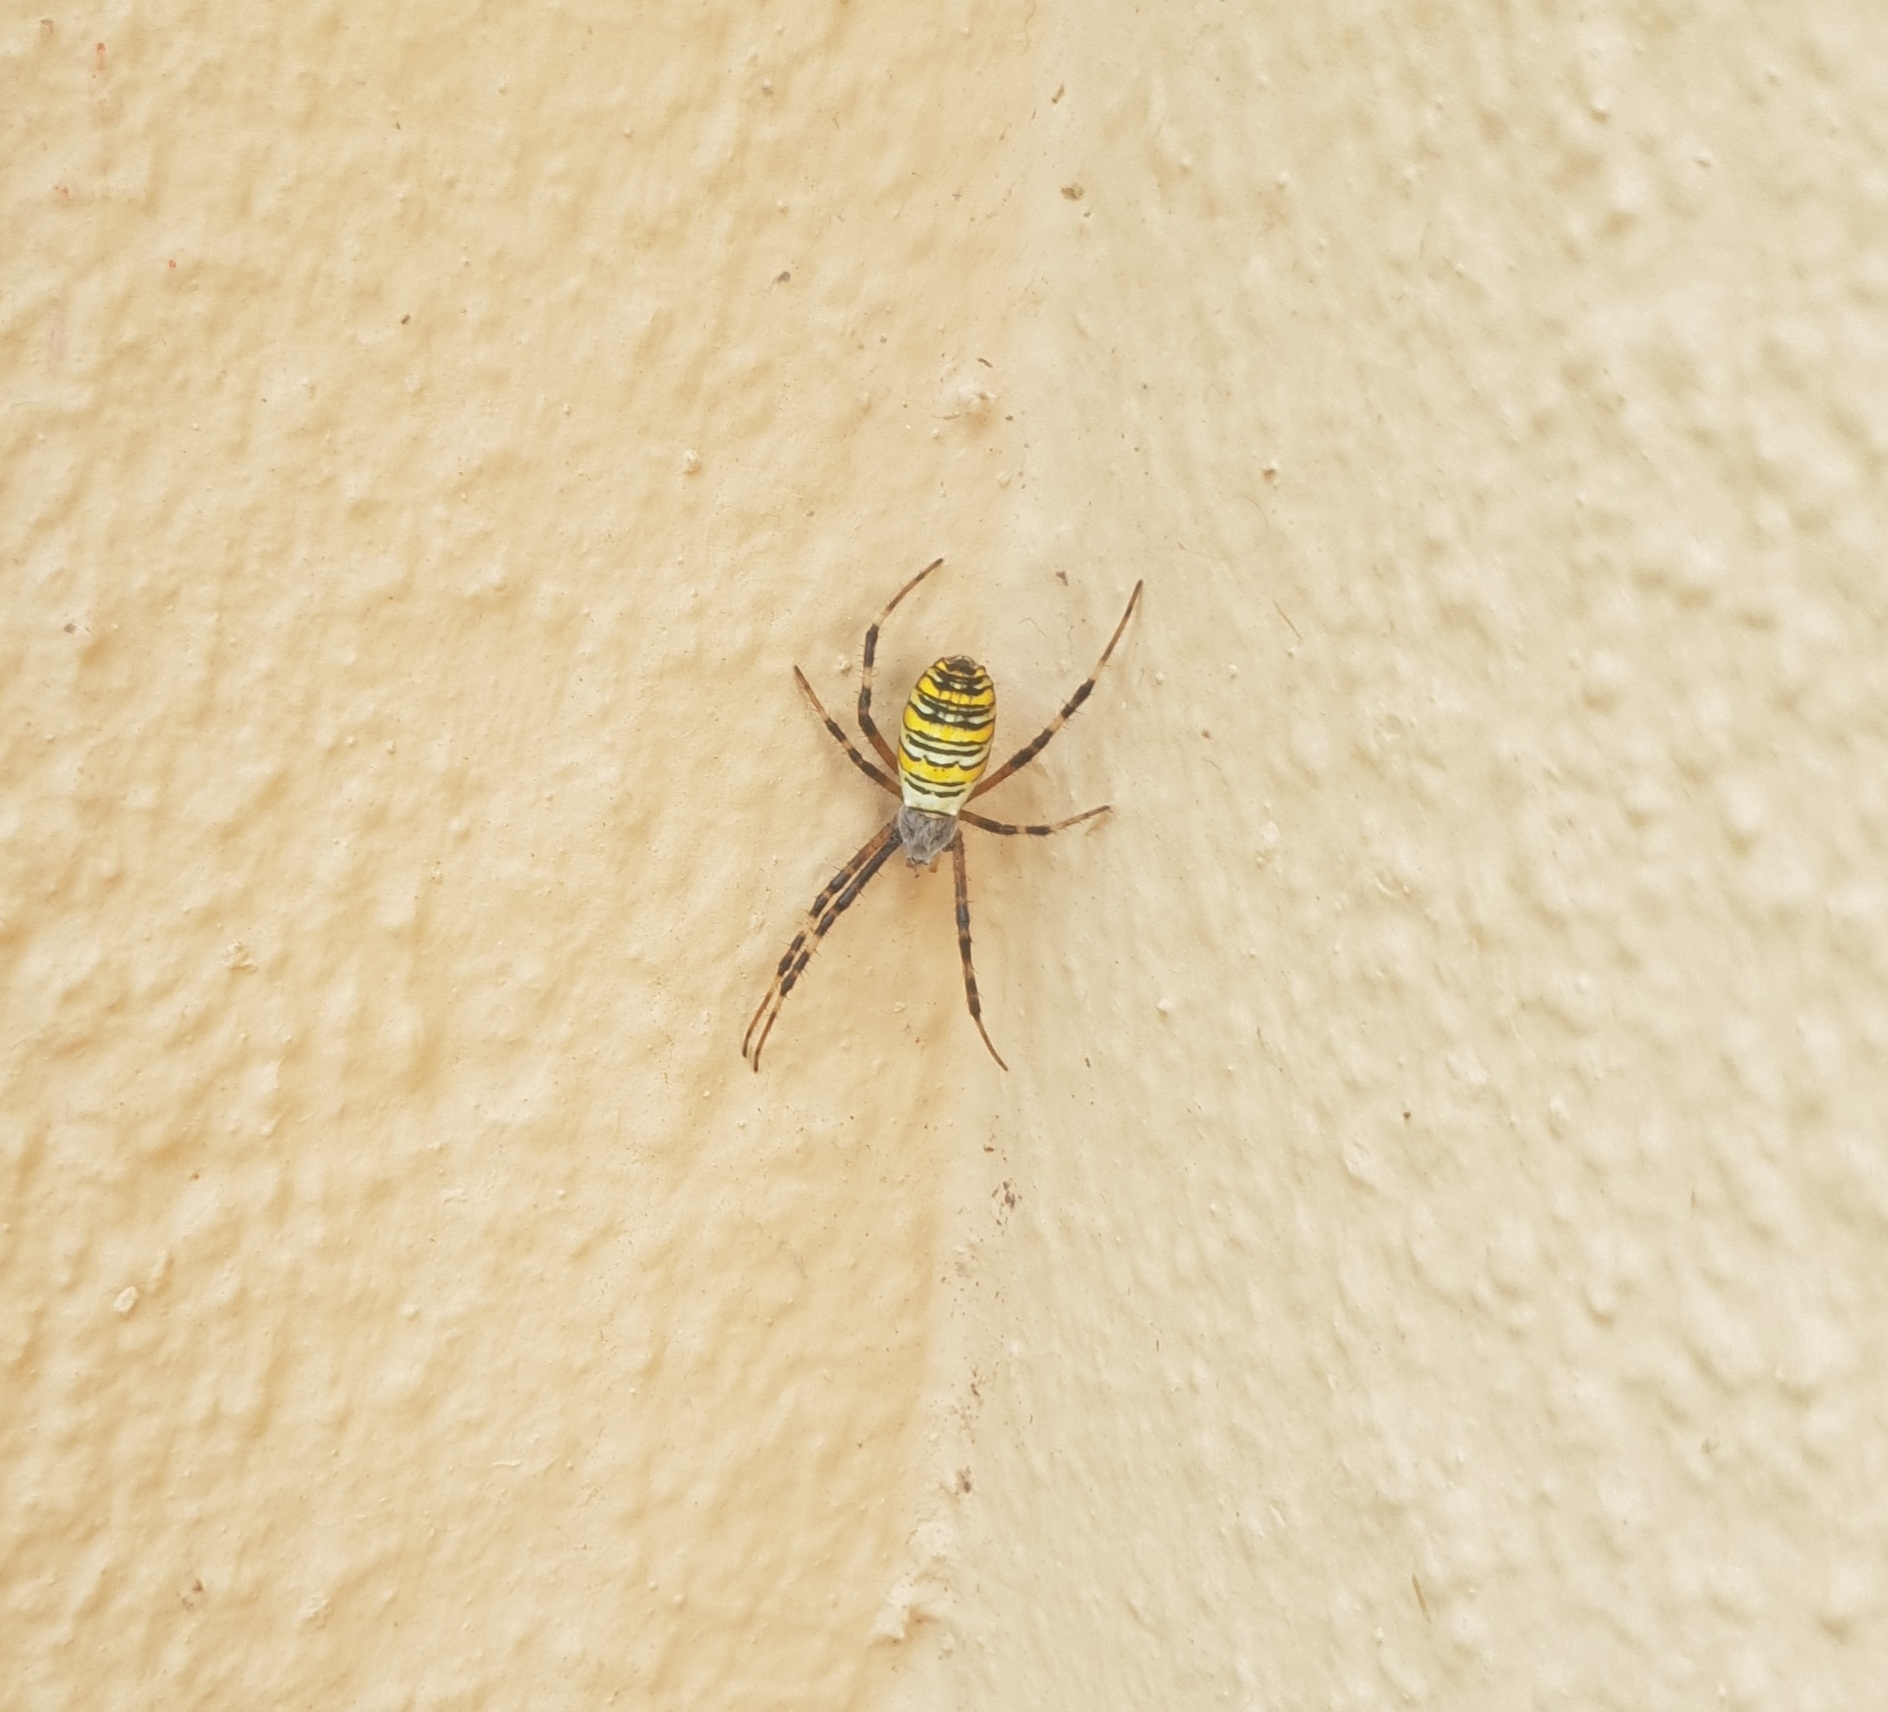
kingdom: Animalia
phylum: Arthropoda
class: Arachnida
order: Araneae
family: Araneidae
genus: Argiope
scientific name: Argiope bruennichi
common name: Wasp spider
